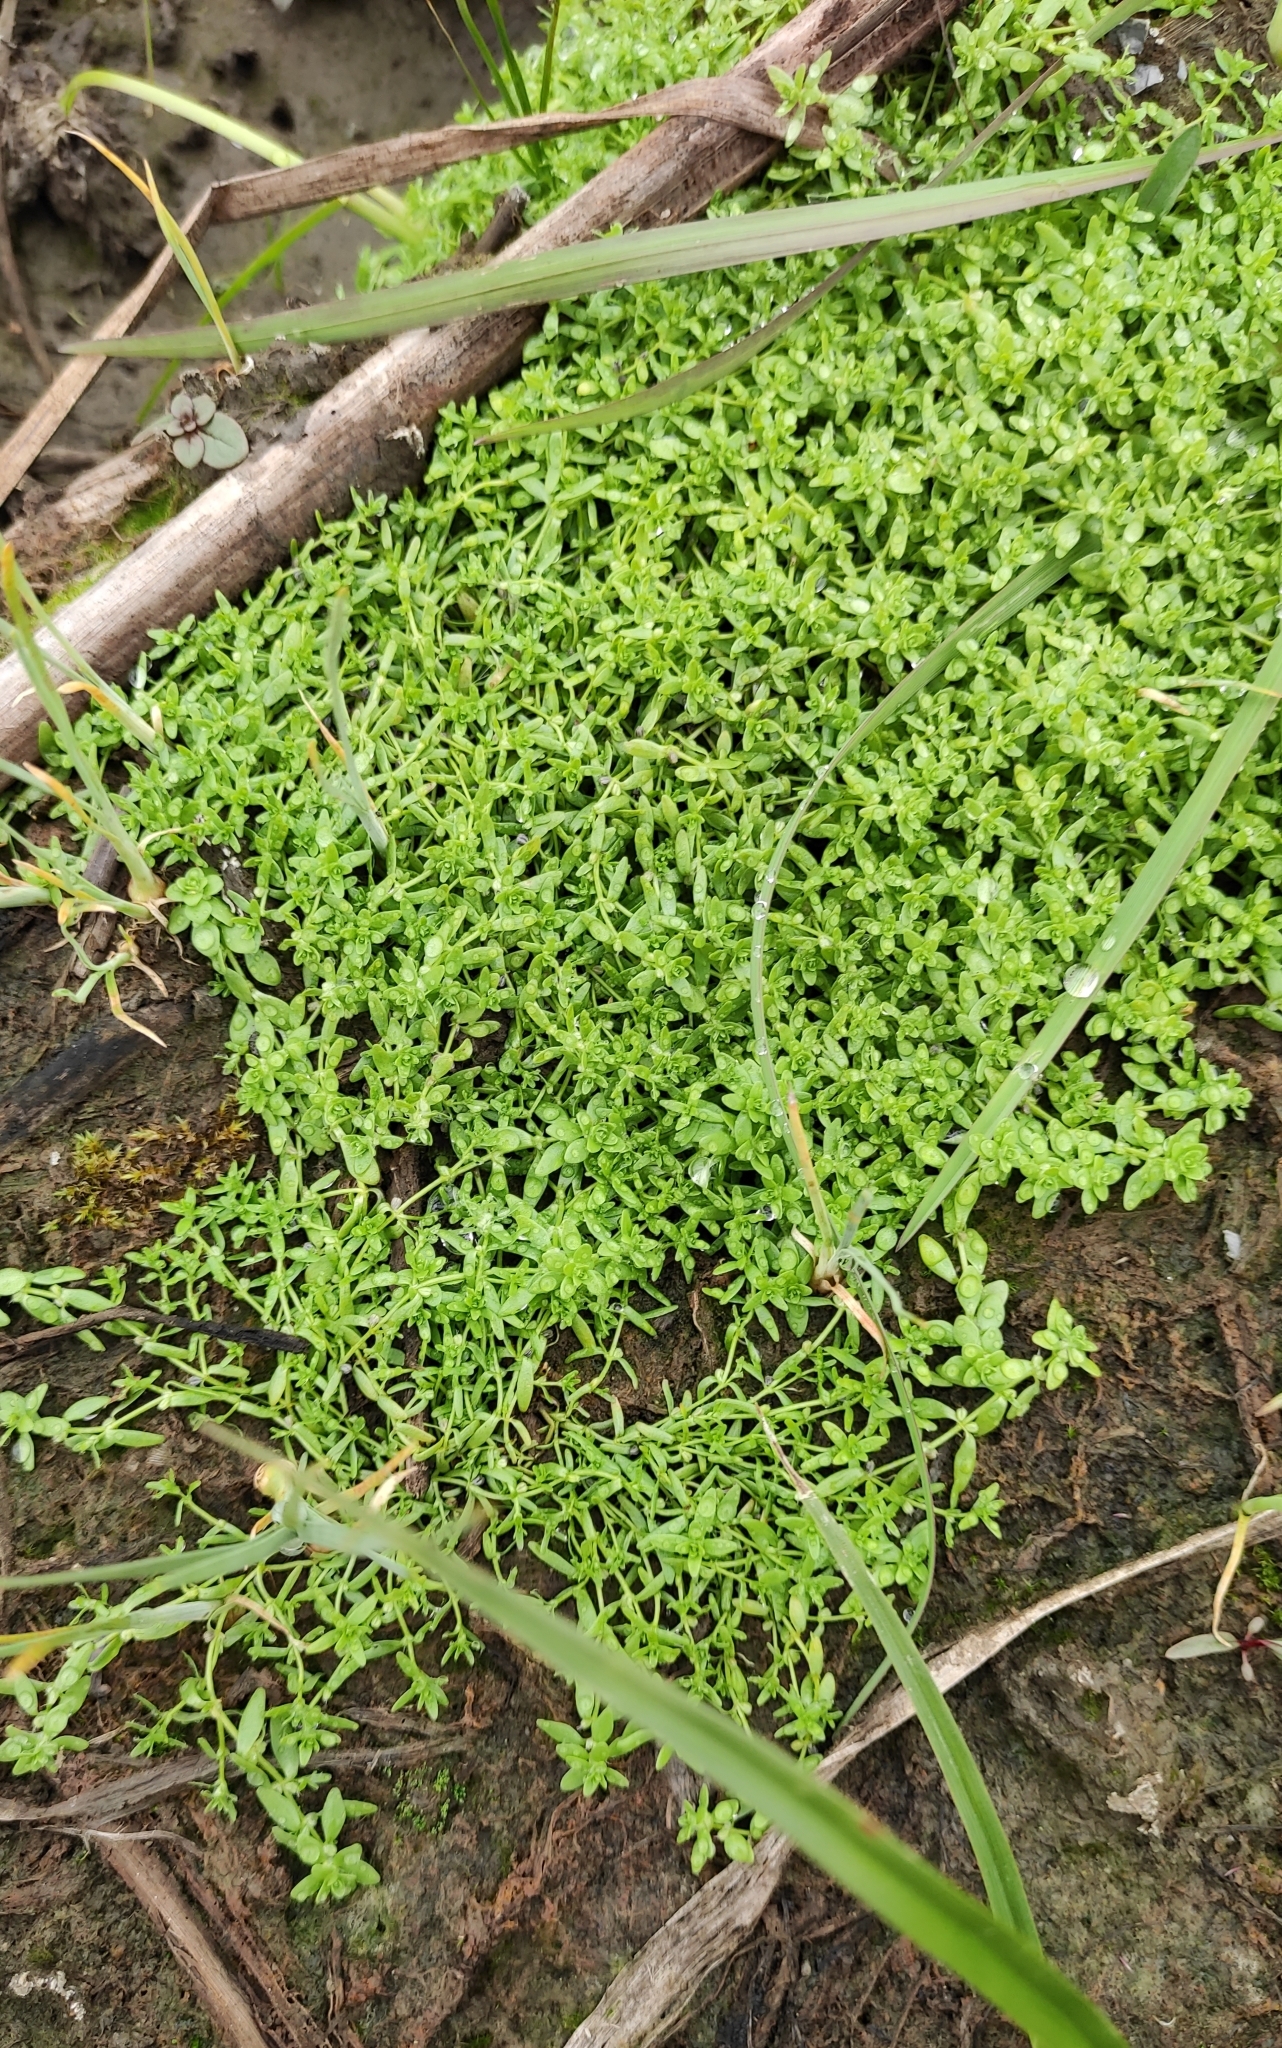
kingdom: Plantae
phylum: Tracheophyta
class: Magnoliopsida
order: Lamiales
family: Plantaginaceae
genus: Callitriche
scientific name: Callitriche palustris
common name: Spring water-starwort
